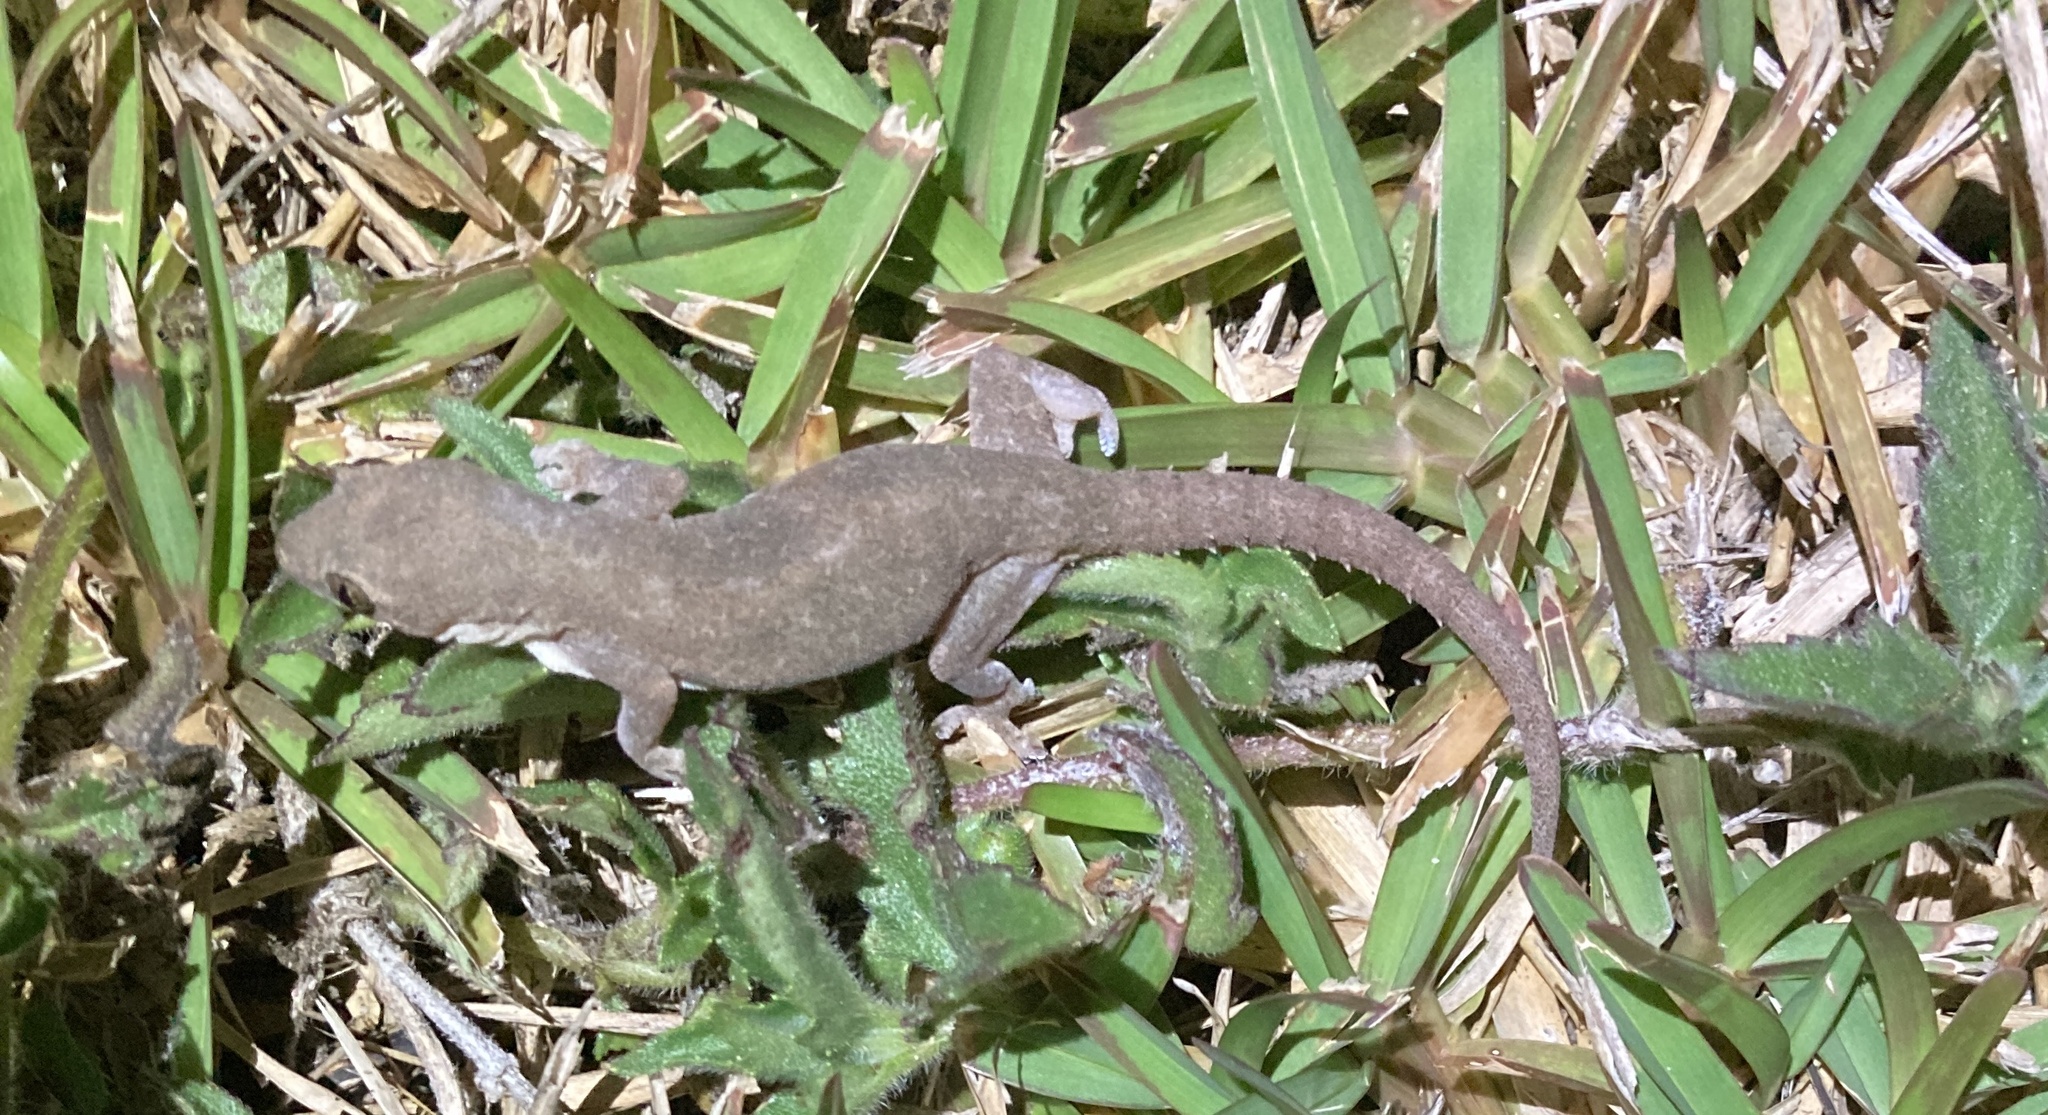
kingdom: Animalia
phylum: Chordata
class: Squamata
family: Gekkonidae
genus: Hemidactylus
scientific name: Hemidactylus frenatus
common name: Common house gecko
